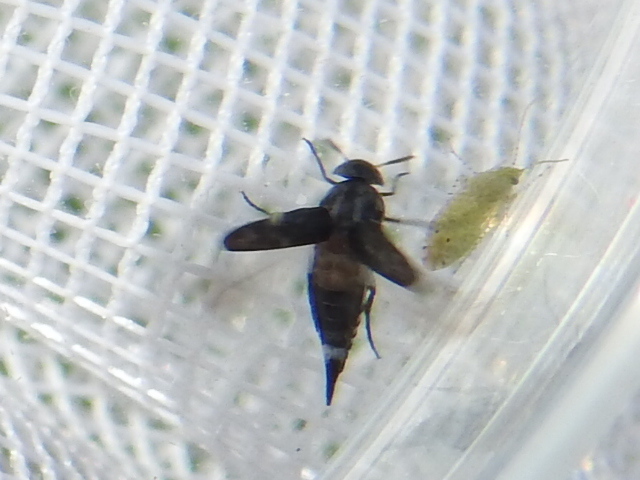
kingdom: Animalia
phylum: Arthropoda
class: Insecta
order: Coleoptera
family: Mordellidae
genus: Mordella
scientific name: Mordella marginata
